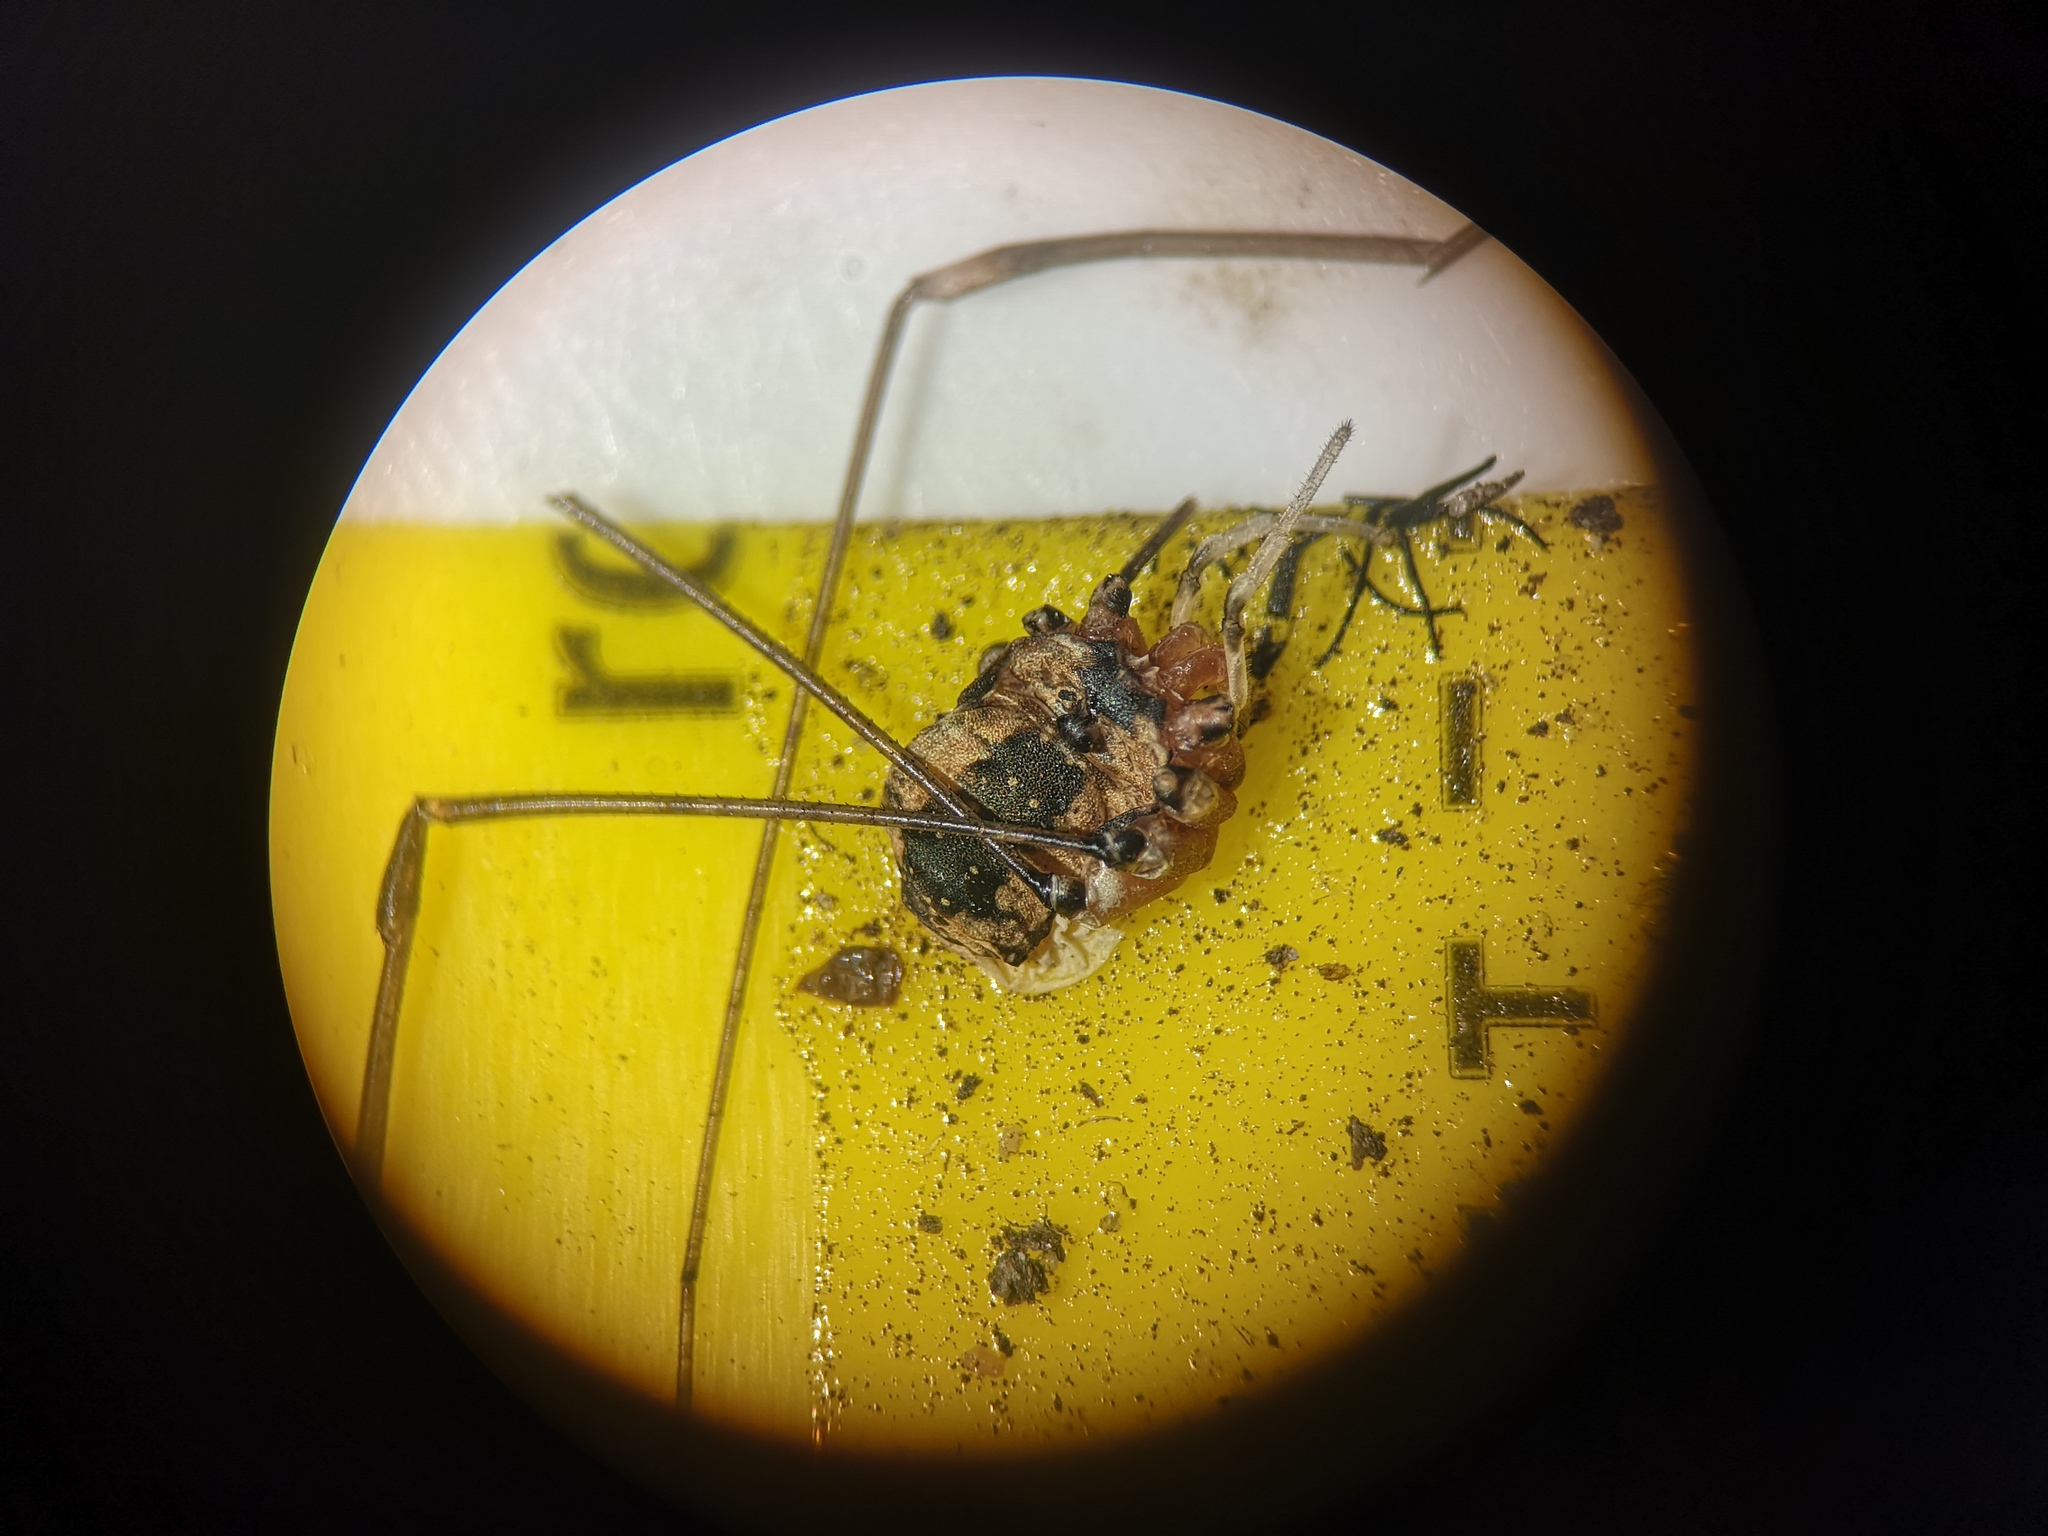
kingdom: Animalia
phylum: Arthropoda
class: Arachnida
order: Opiliones
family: Sclerosomatidae
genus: Leiobunum
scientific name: Leiobunum rotundum
